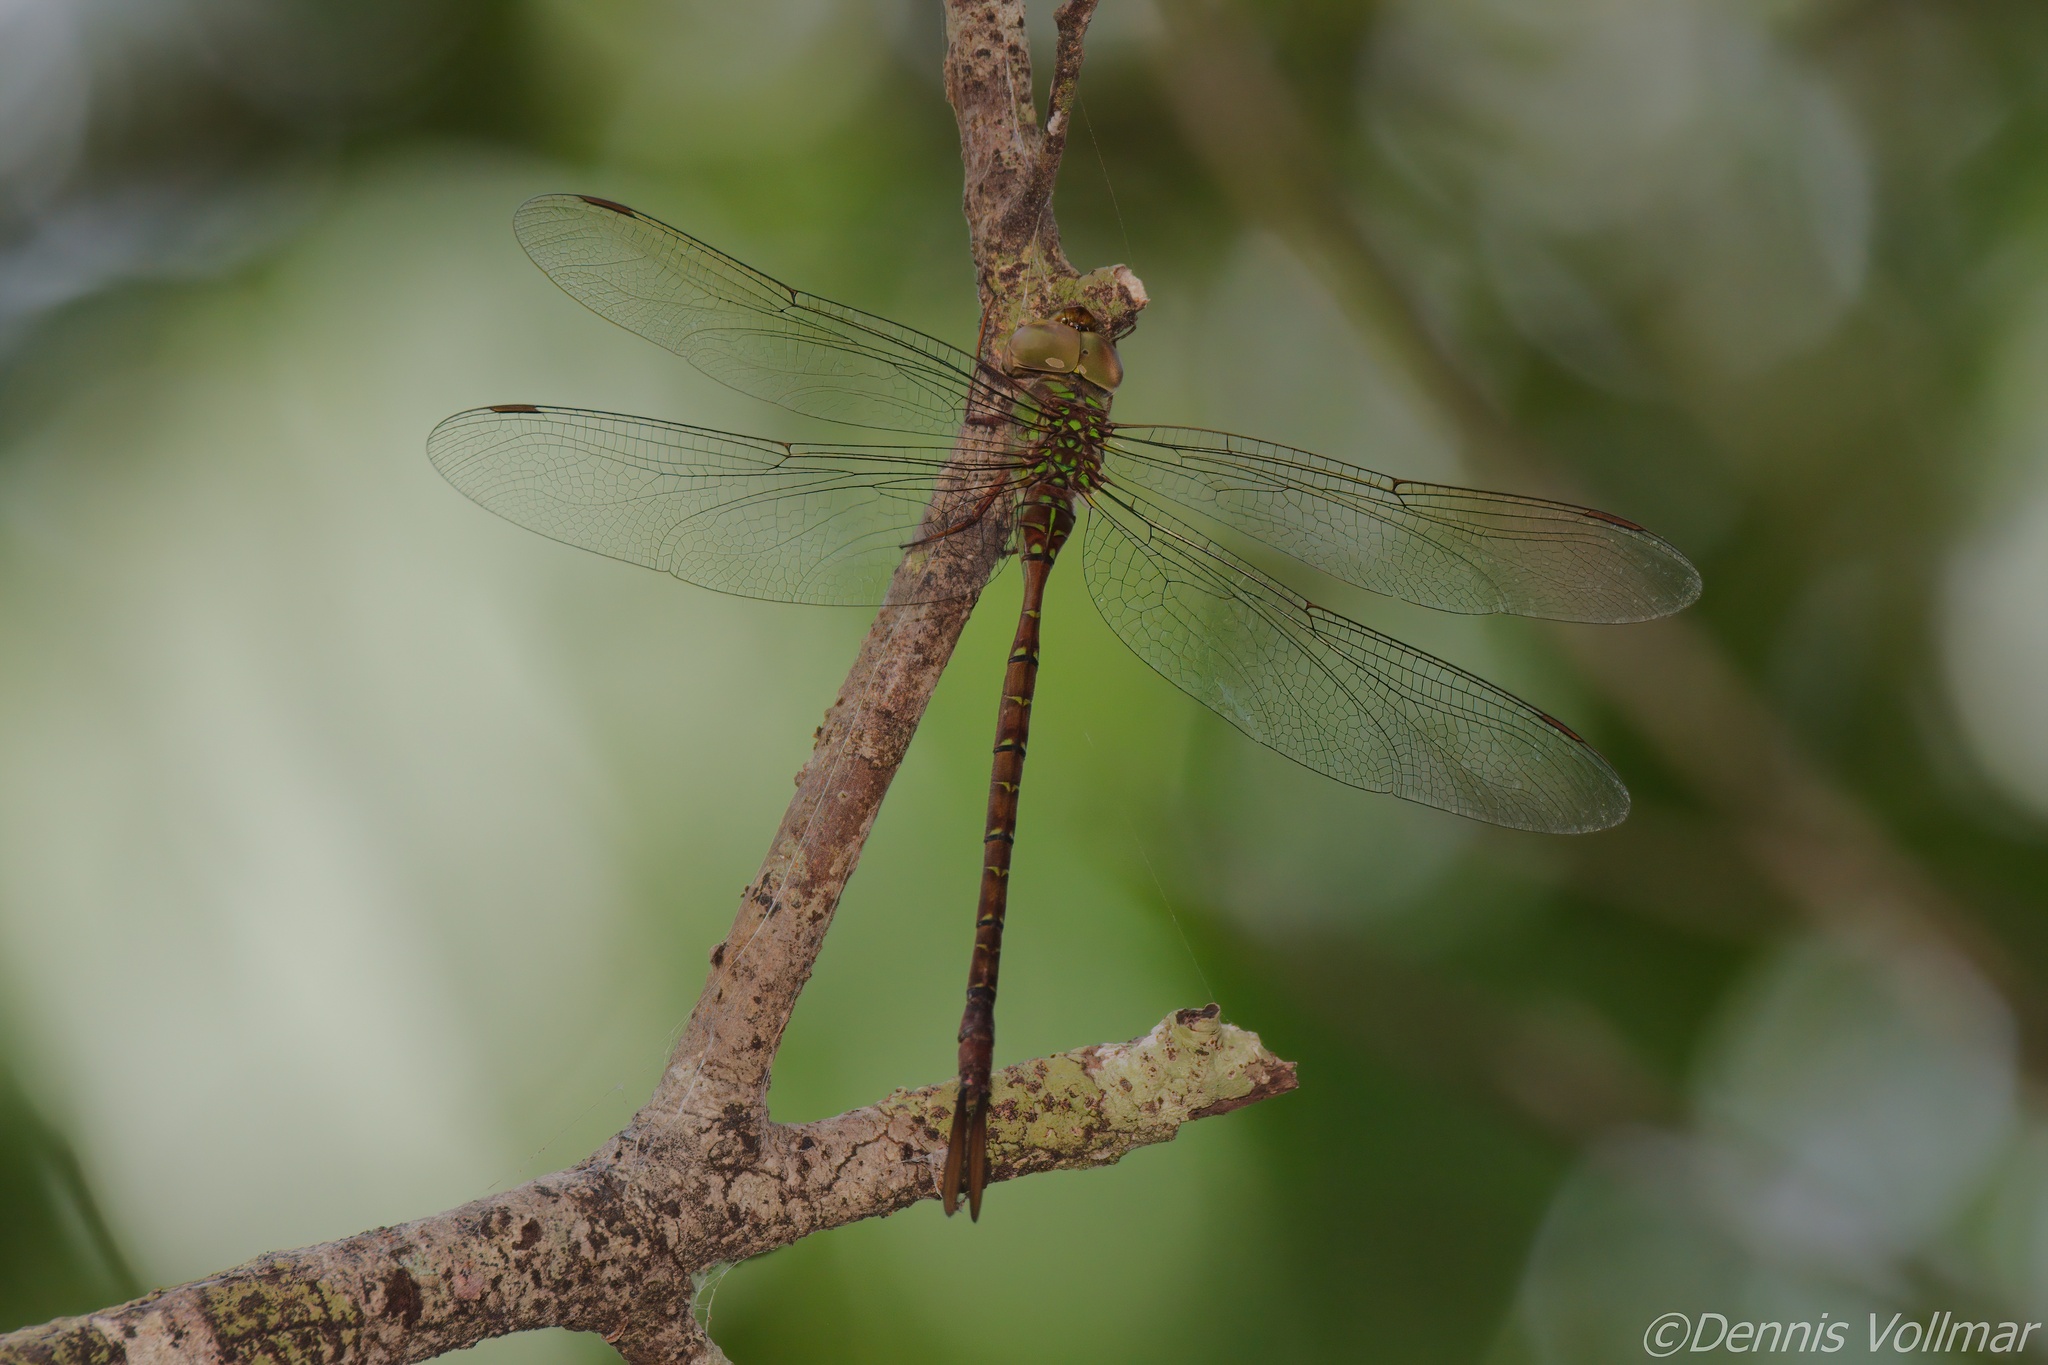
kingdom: Animalia
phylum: Arthropoda
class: Insecta
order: Odonata
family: Aeshnidae
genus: Triacanthagyna
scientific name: Triacanthagyna trifida
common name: Phantom darner
